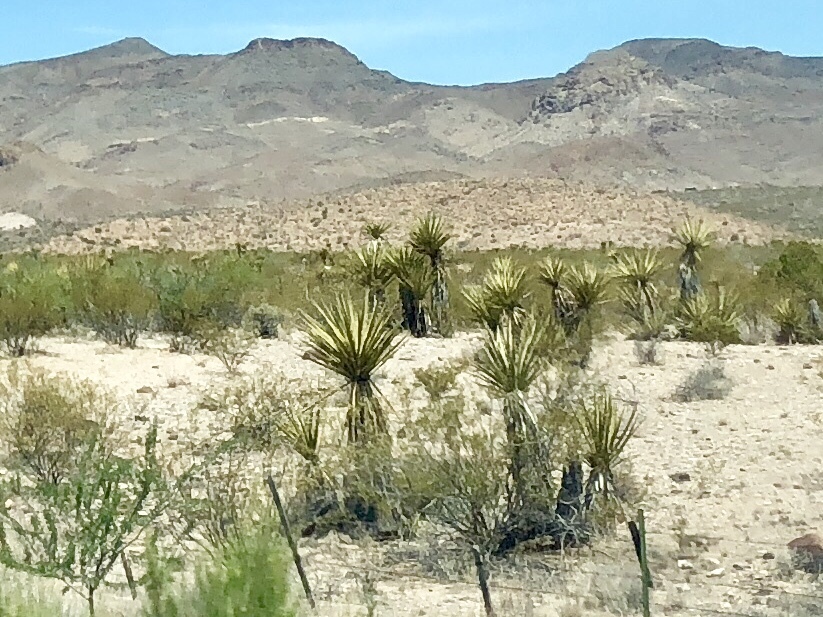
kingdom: Plantae
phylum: Tracheophyta
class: Liliopsida
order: Asparagales
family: Asparagaceae
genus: Yucca
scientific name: Yucca schidigera
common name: Mojave yucca
